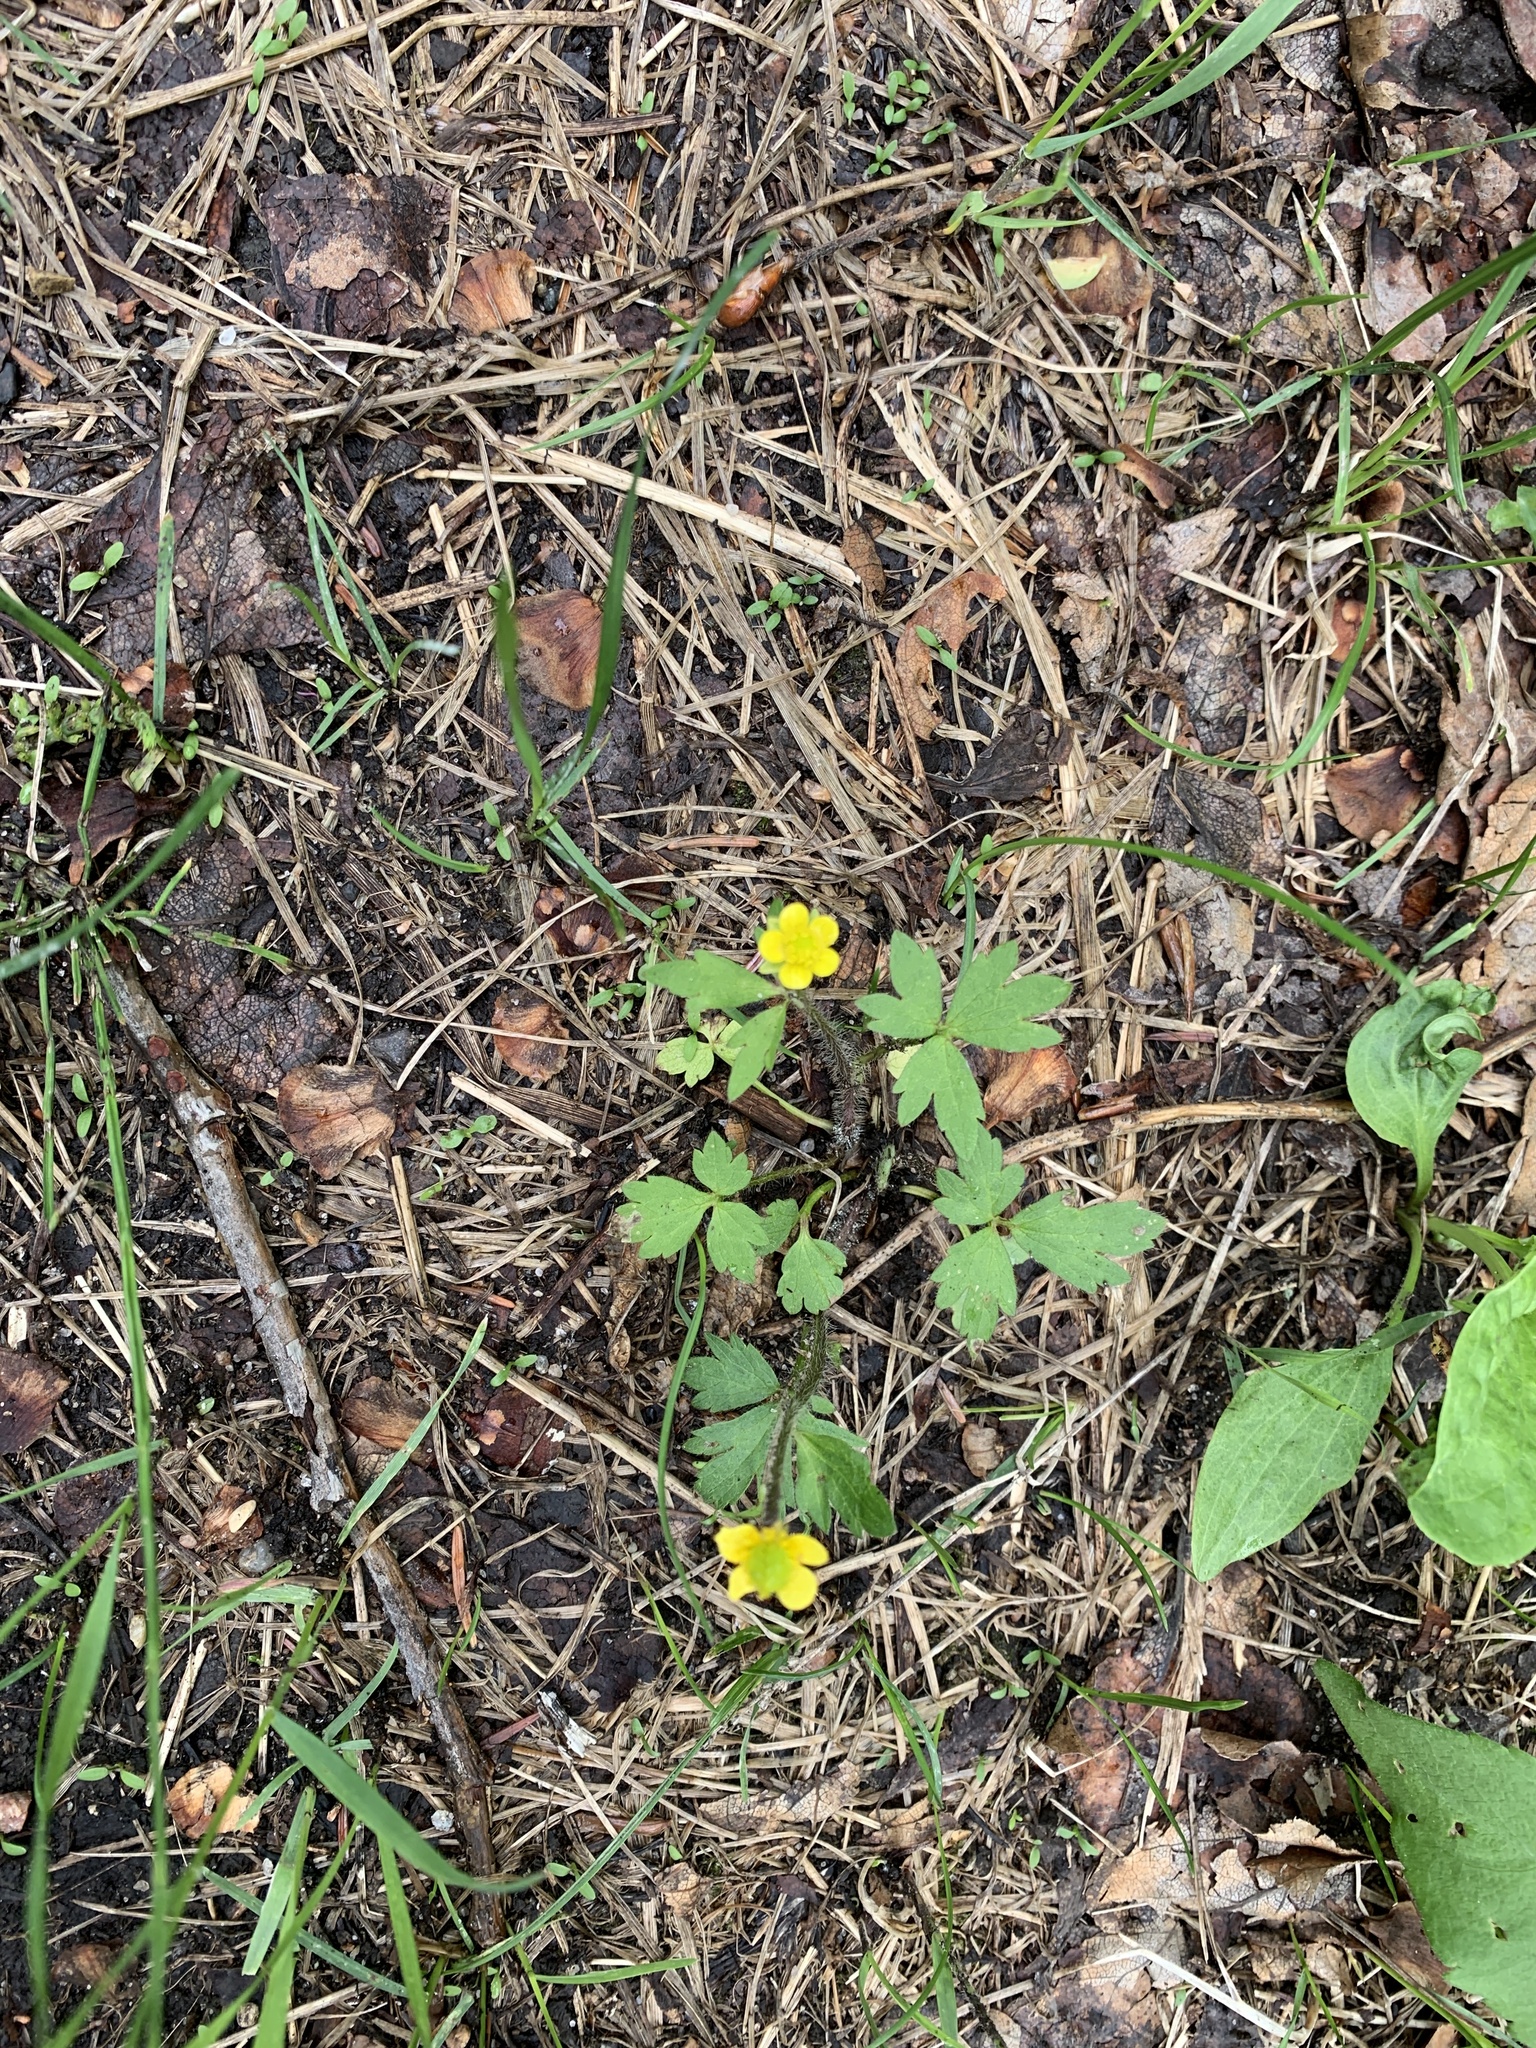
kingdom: Plantae
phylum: Tracheophyta
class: Magnoliopsida
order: Ranunculales
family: Ranunculaceae
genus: Ranunculus
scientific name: Ranunculus macounii
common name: Macoun's buttercup
